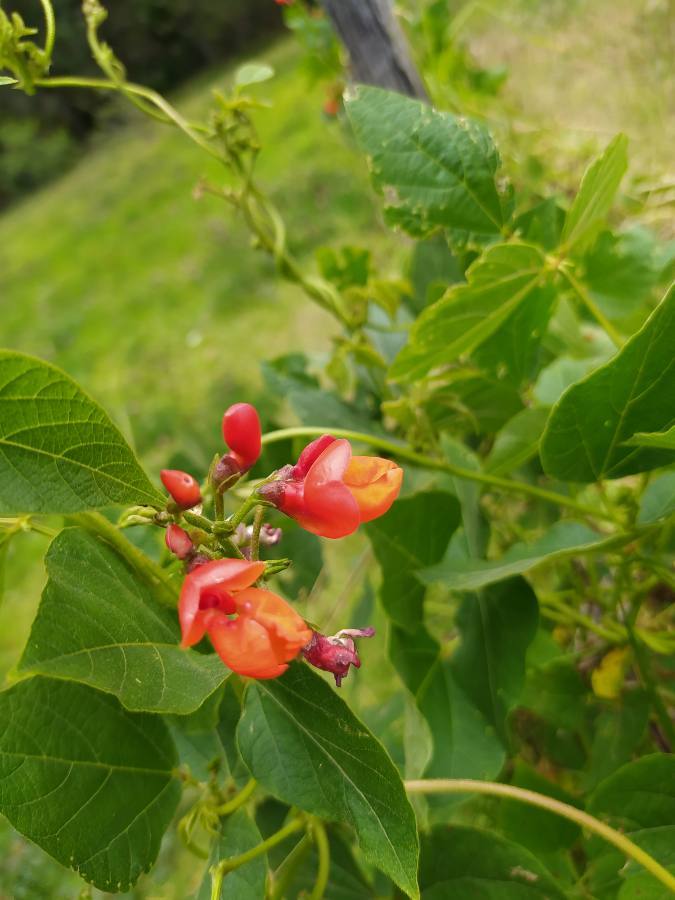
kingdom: Plantae
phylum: Tracheophyta
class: Magnoliopsida
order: Fabales
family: Fabaceae
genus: Phaseolus
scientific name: Phaseolus coccineus
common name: Runner bean
